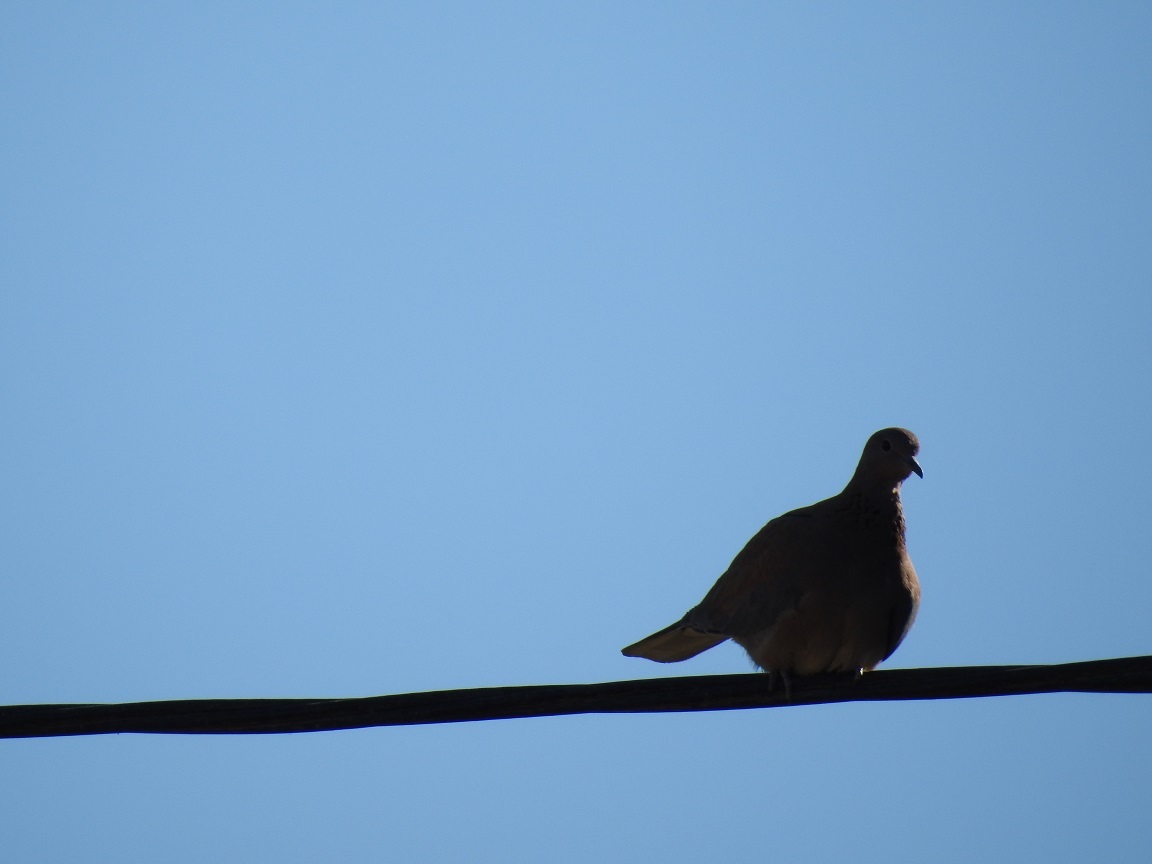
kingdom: Animalia
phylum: Chordata
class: Aves
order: Columbiformes
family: Columbidae
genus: Spilopelia
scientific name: Spilopelia senegalensis
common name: Laughing dove
